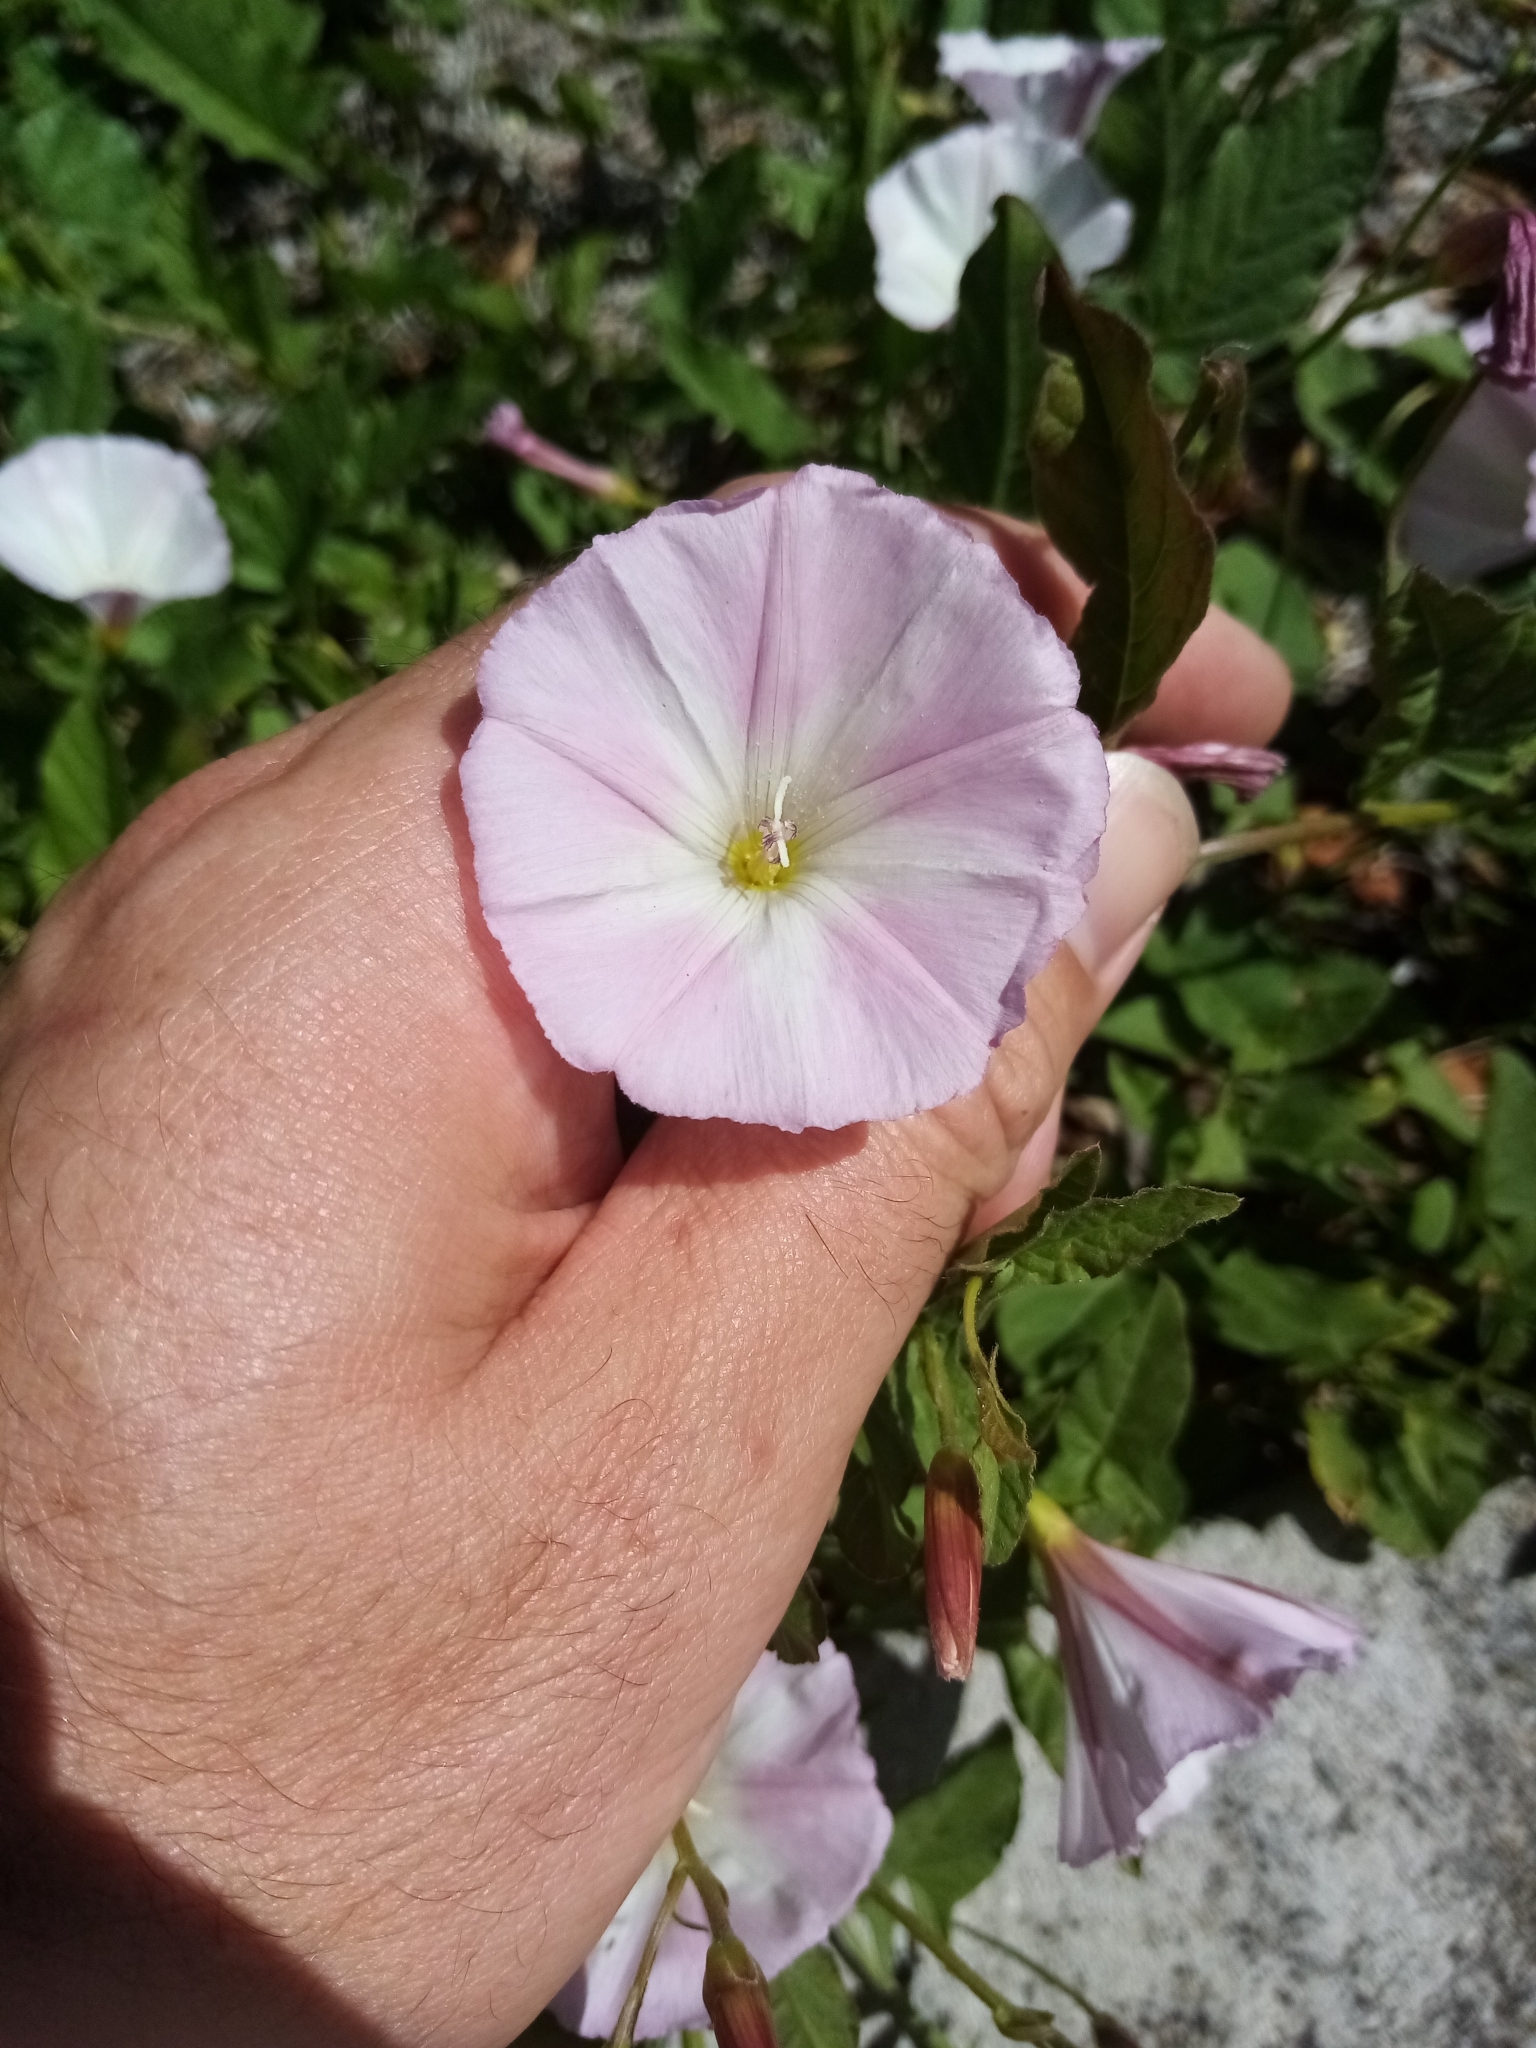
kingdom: Plantae
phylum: Tracheophyta
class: Magnoliopsida
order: Solanales
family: Convolvulaceae
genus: Convolvulus
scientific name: Convolvulus arvensis
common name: Field bindweed
